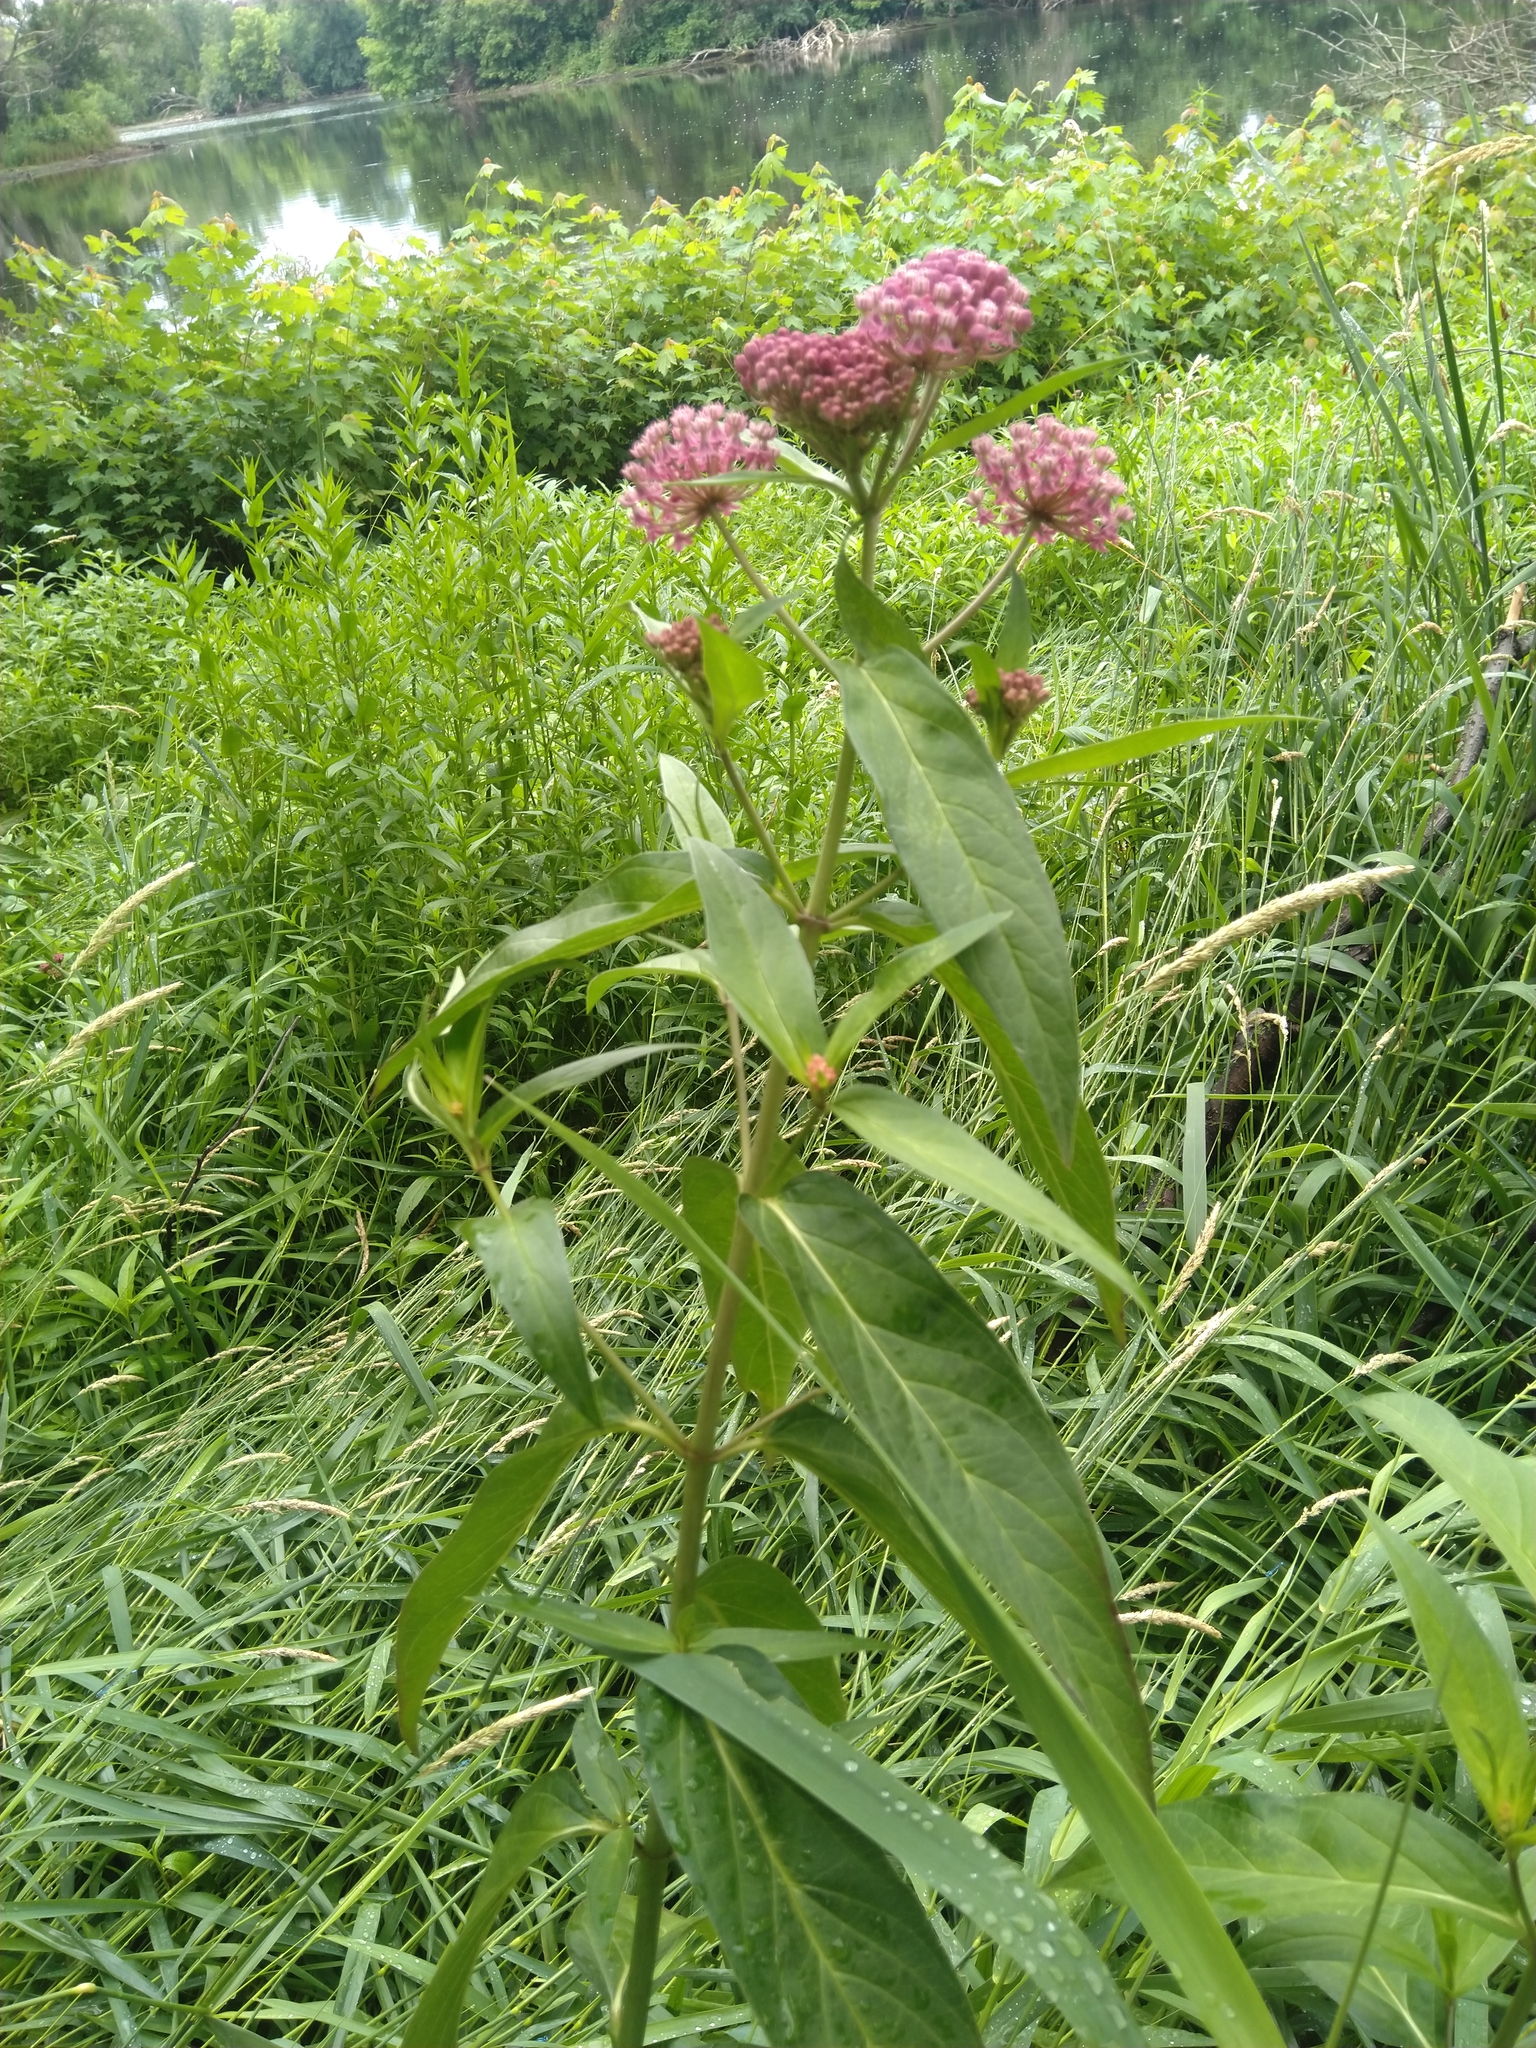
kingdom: Plantae
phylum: Tracheophyta
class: Magnoliopsida
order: Gentianales
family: Apocynaceae
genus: Asclepias
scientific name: Asclepias incarnata
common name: Swamp milkweed
